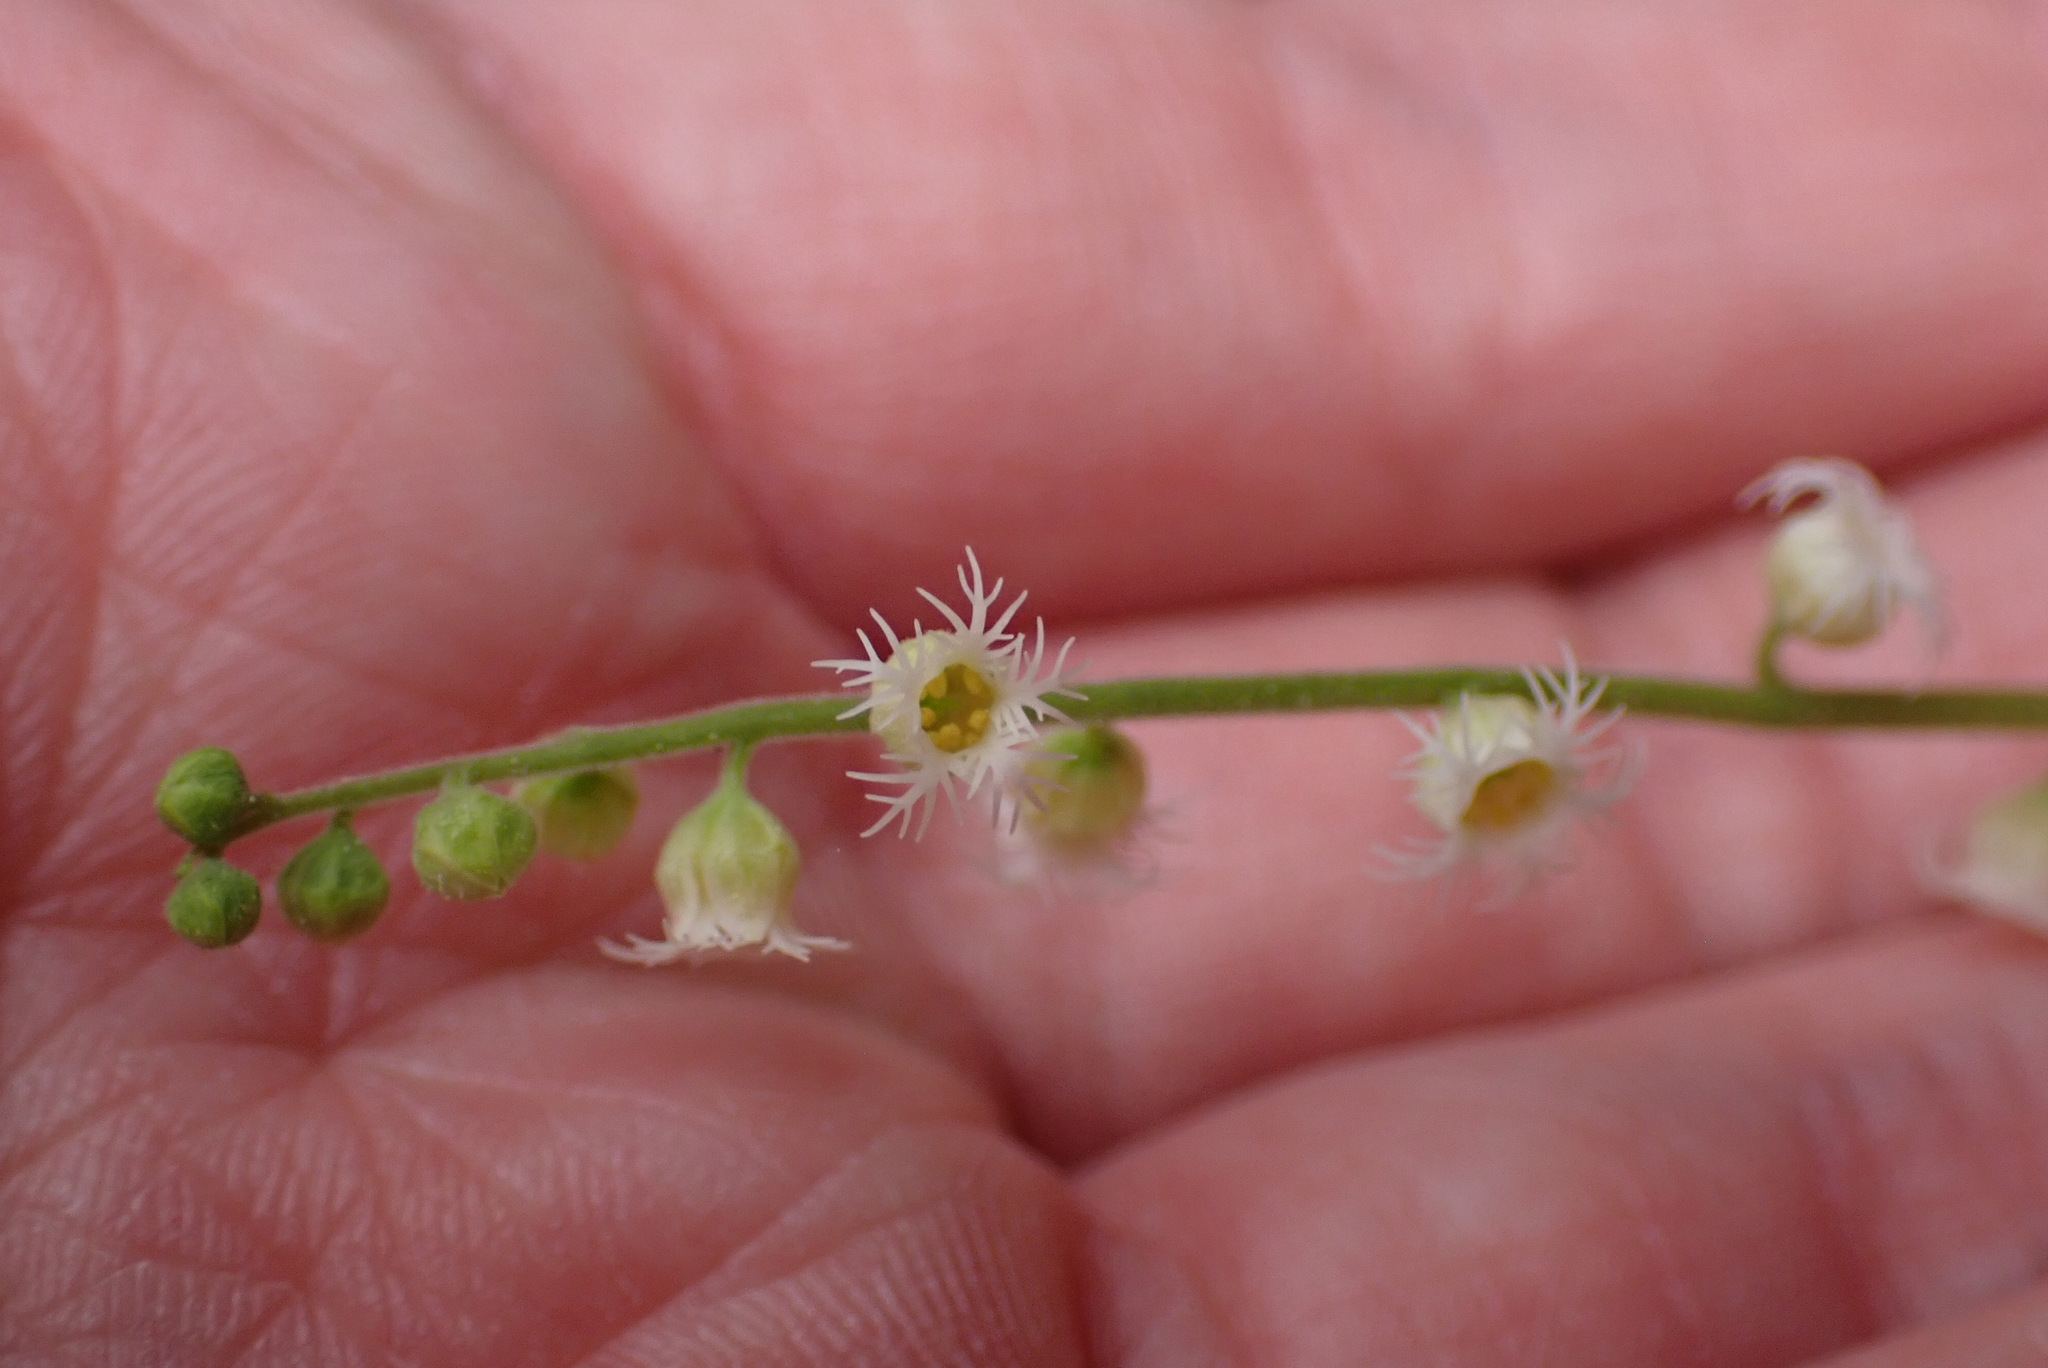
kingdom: Plantae
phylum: Tracheophyta
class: Magnoliopsida
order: Saxifragales
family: Saxifragaceae
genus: Mitella
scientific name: Mitella diphylla
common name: Coolwort
